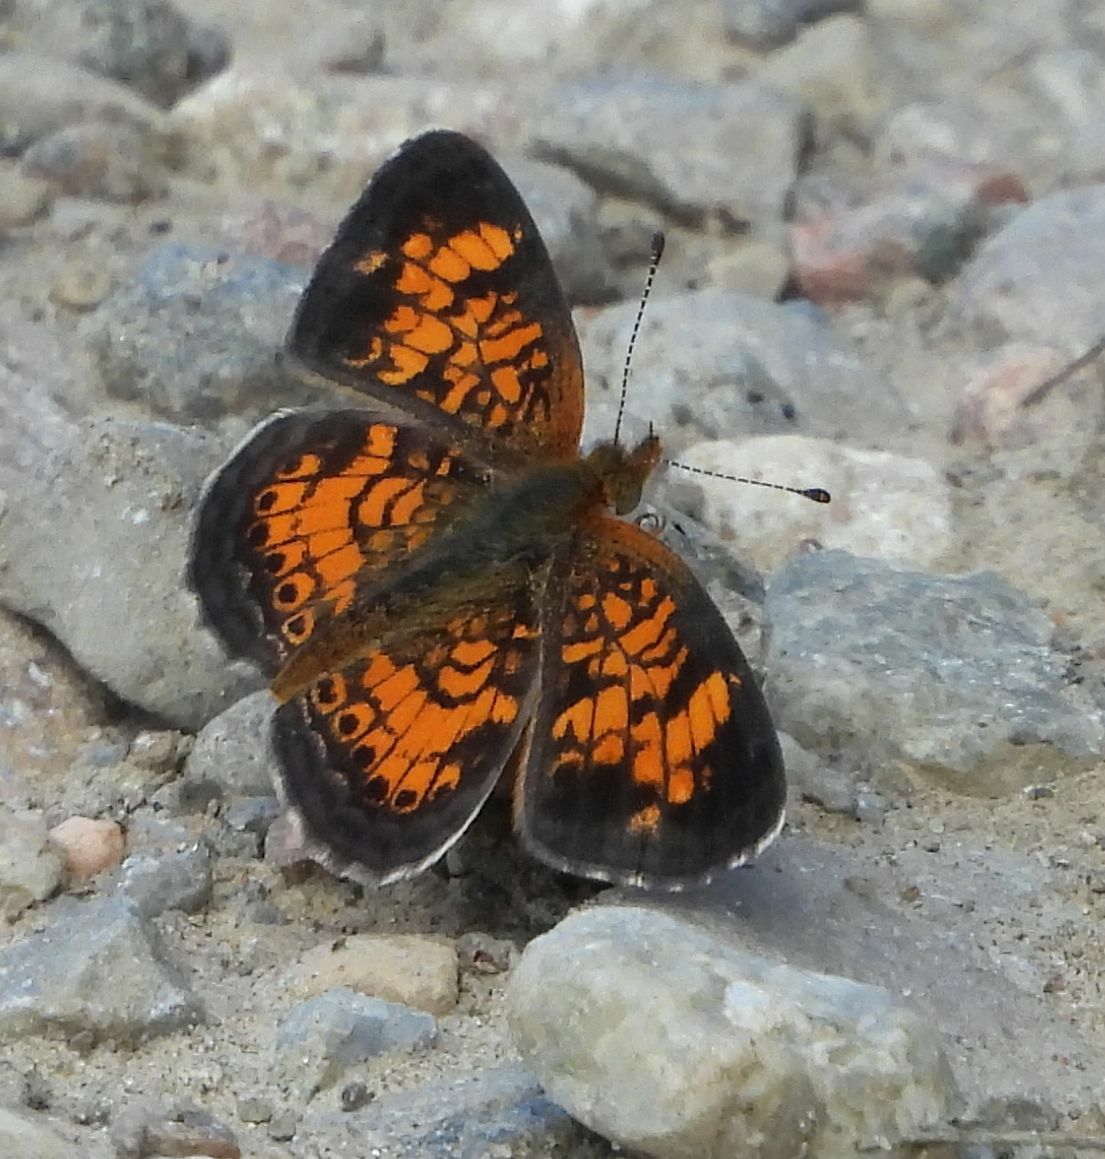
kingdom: Animalia
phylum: Arthropoda
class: Insecta
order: Lepidoptera
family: Nymphalidae
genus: Phyciodes
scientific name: Phyciodes tharos
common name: Pearl crescent
